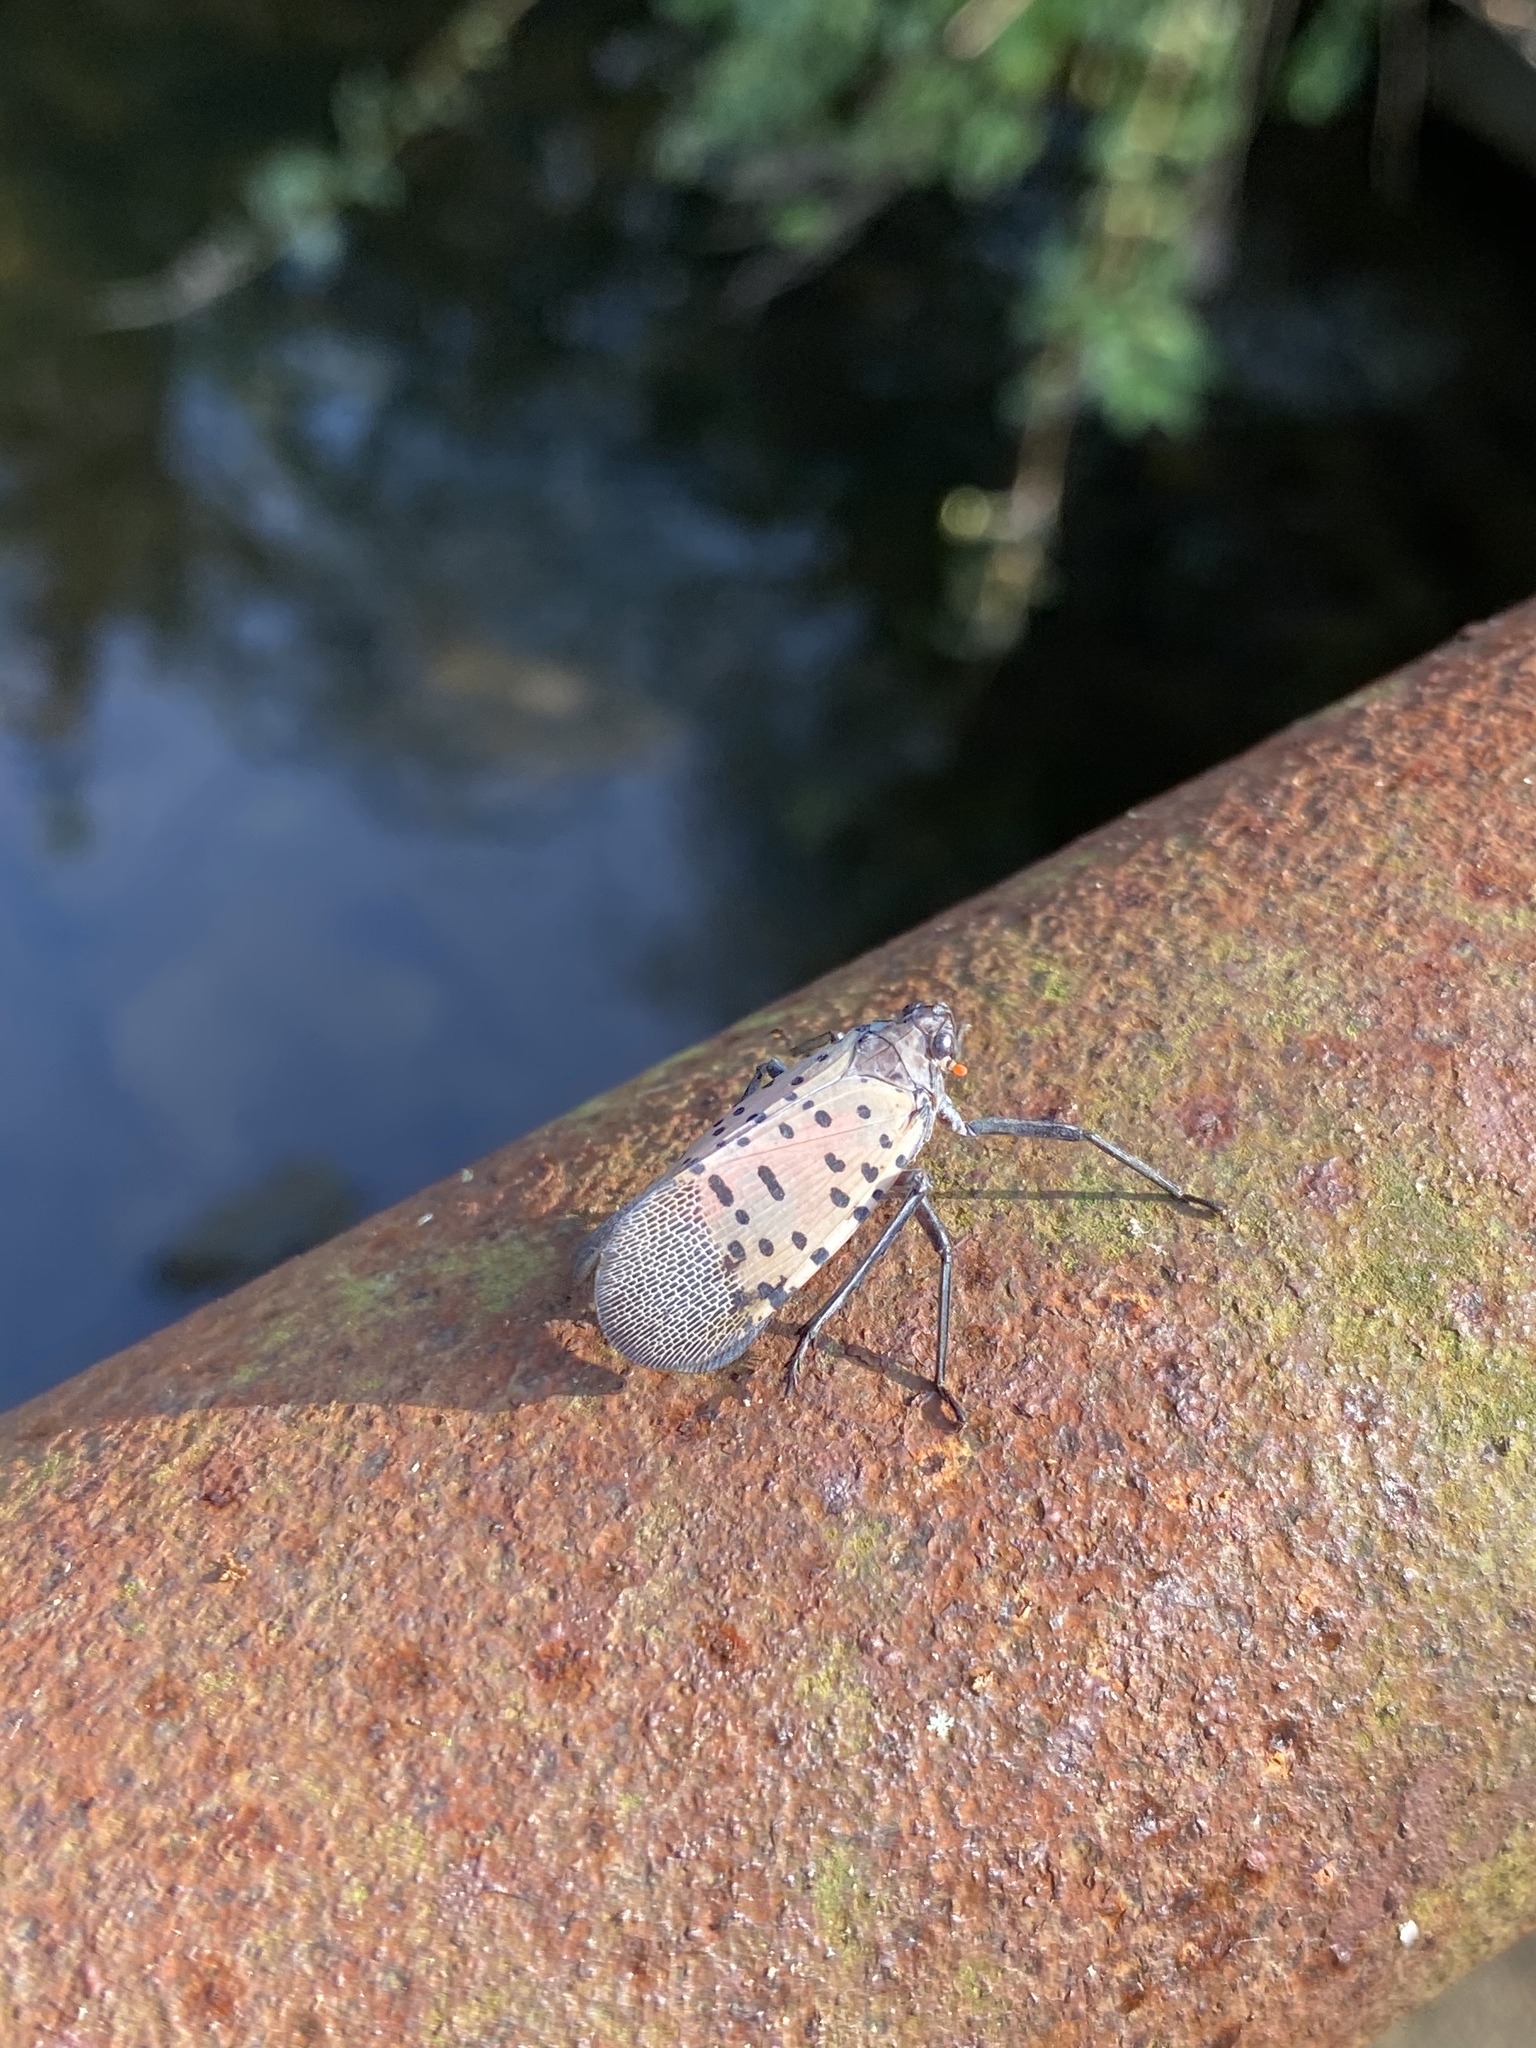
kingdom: Animalia
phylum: Arthropoda
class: Insecta
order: Hemiptera
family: Fulgoridae
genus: Lycorma
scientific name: Lycorma delicatula
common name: Spotted lanternfly
